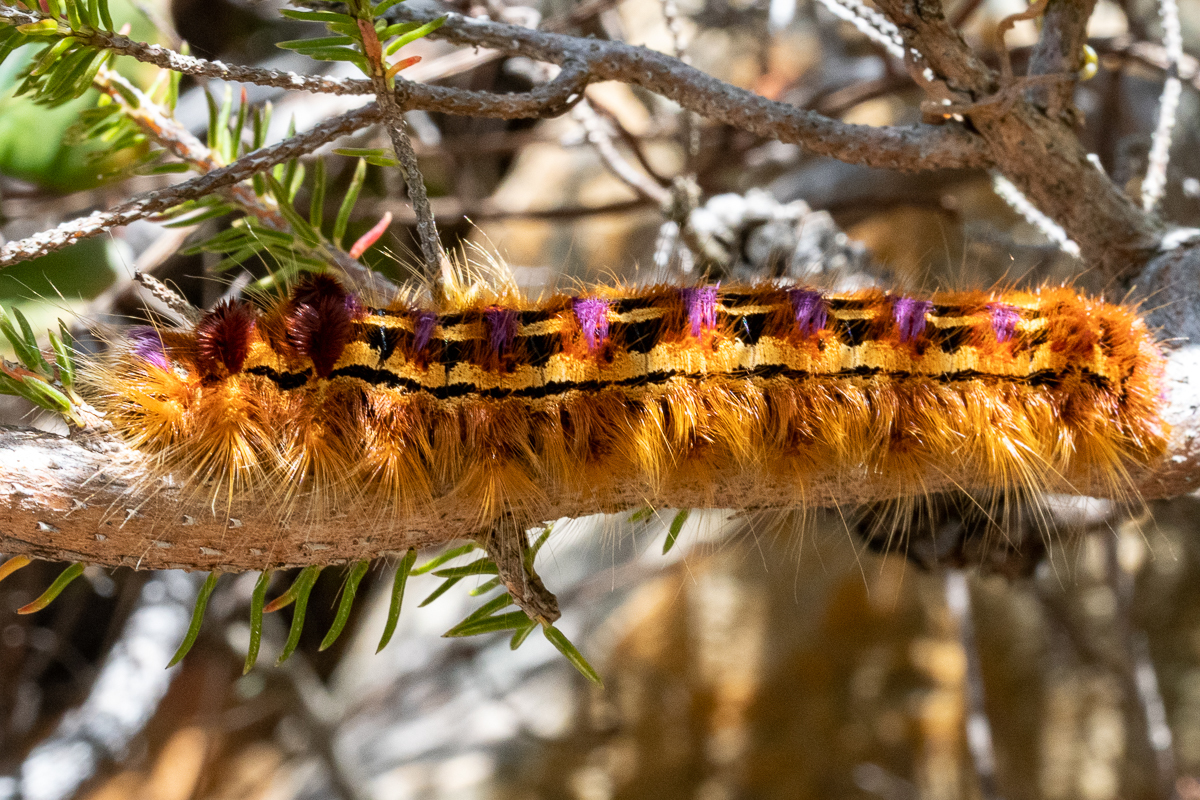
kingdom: Animalia
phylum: Arthropoda
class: Insecta
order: Lepidoptera
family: Lasiocampidae
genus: Eutricha
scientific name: Eutricha bifascia
